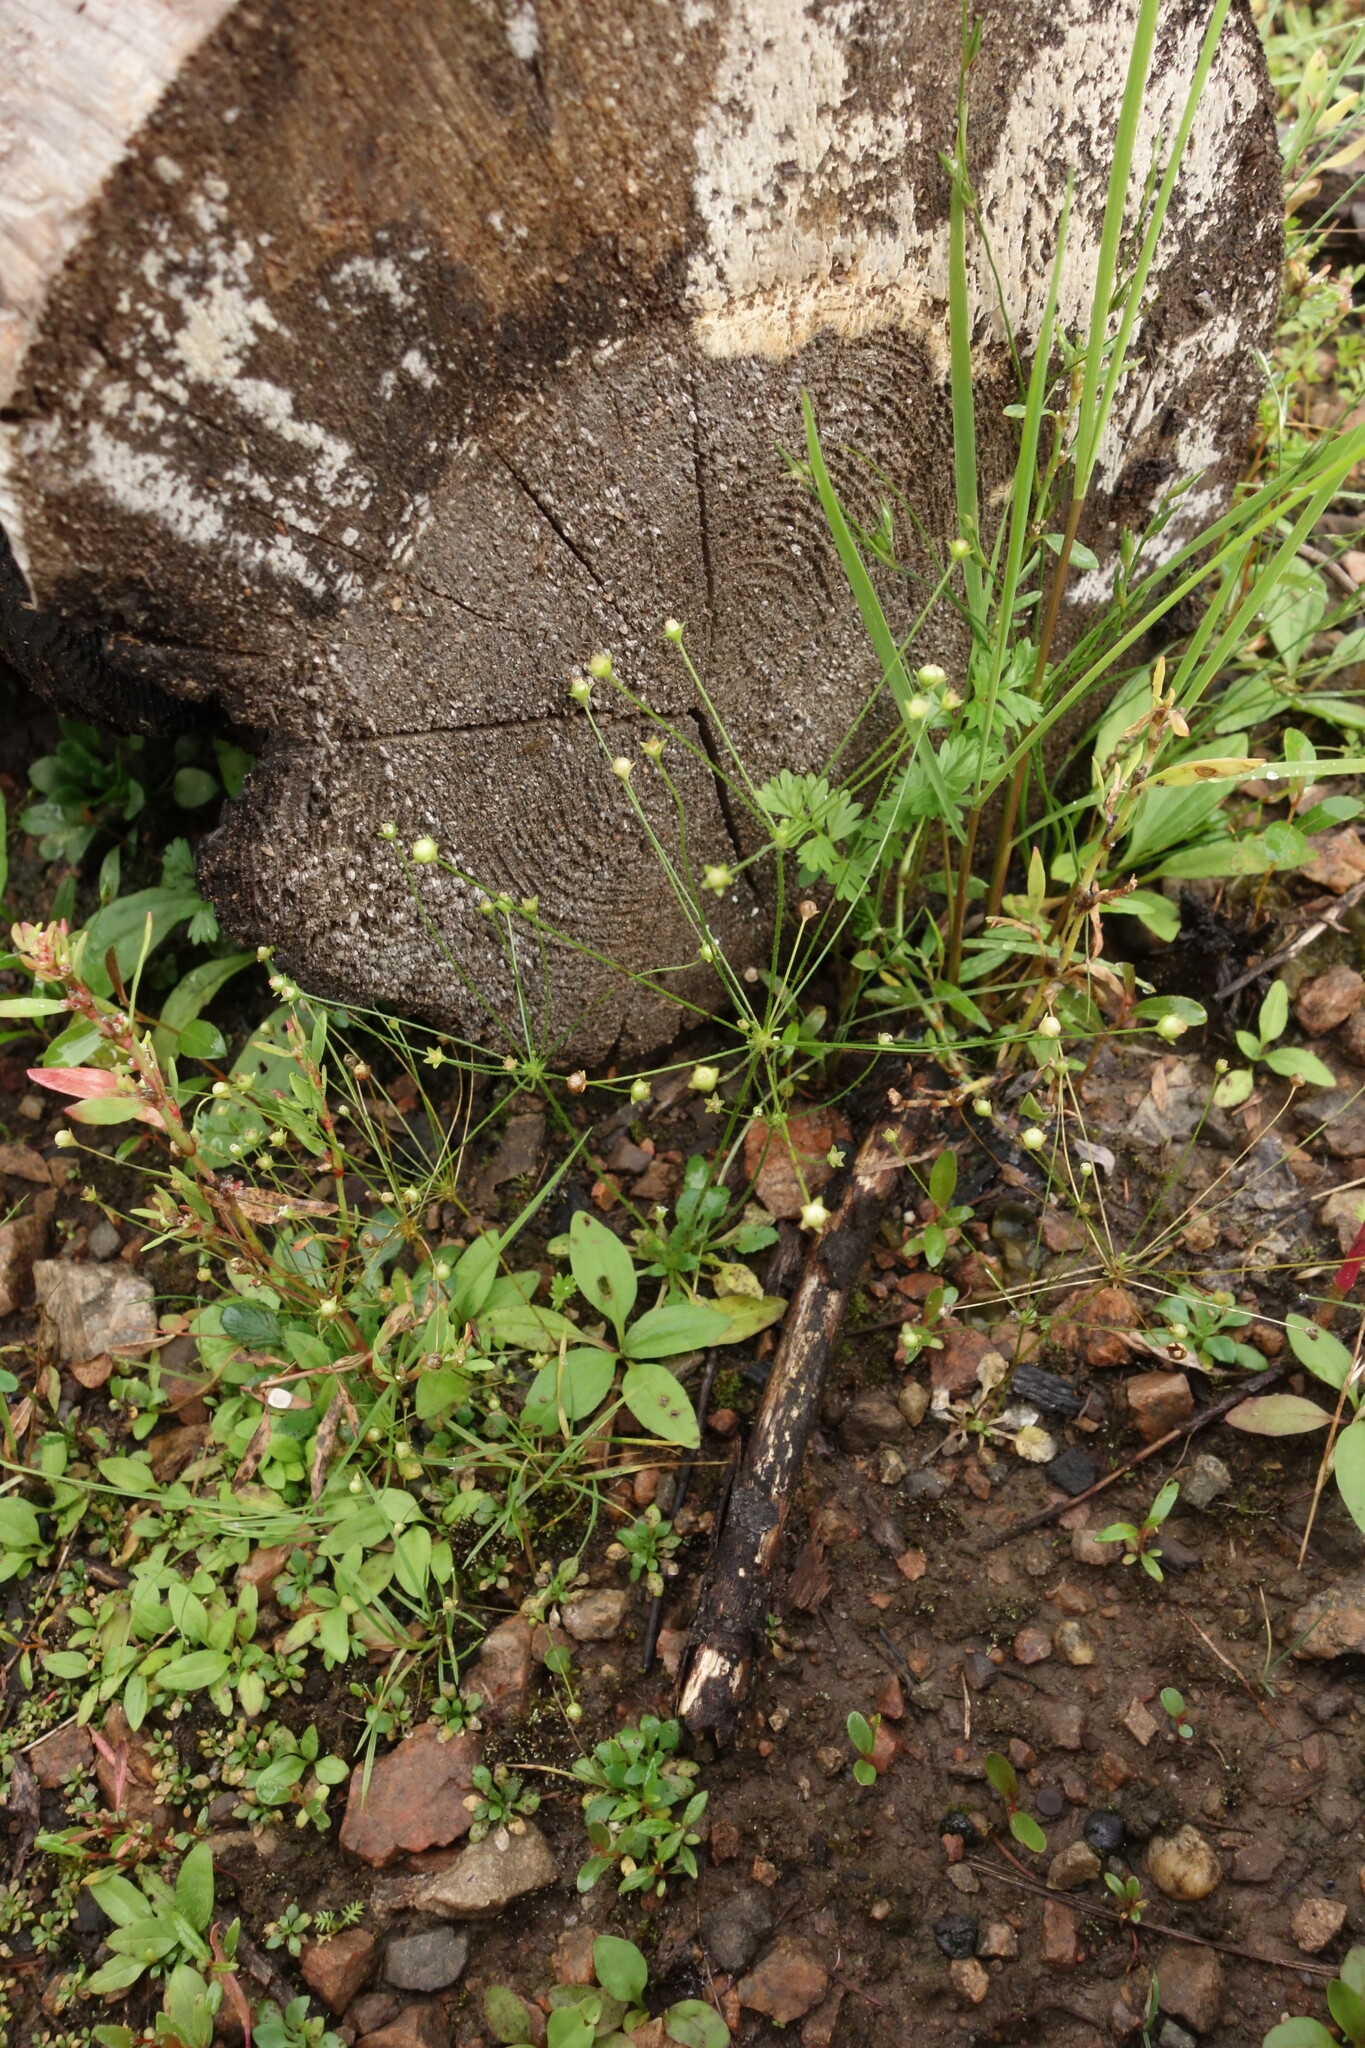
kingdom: Plantae
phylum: Tracheophyta
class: Magnoliopsida
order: Ericales
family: Primulaceae
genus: Androsace
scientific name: Androsace filiformis
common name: Filiform rock jasmine
